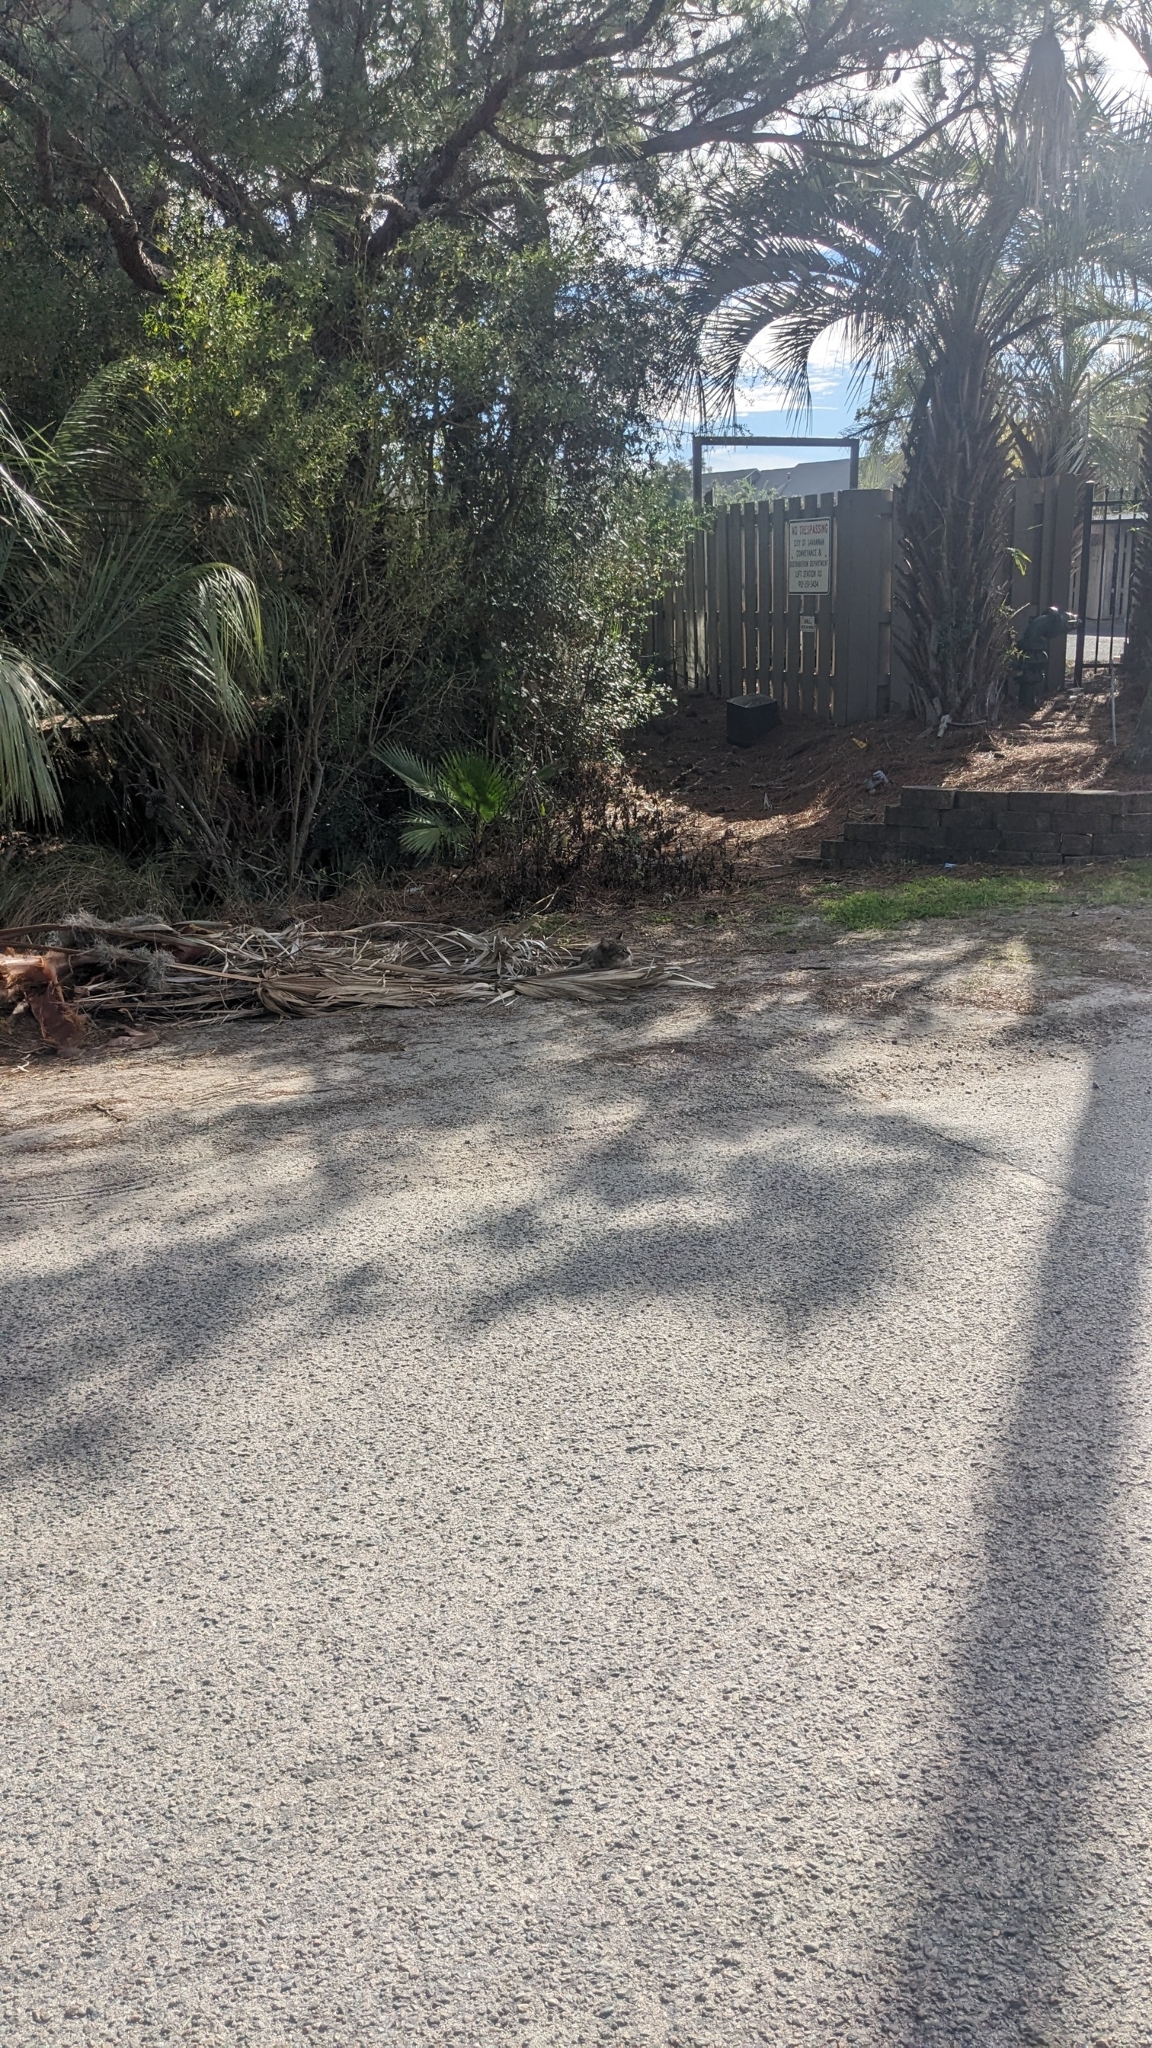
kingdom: Animalia
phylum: Chordata
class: Mammalia
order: Carnivora
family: Felidae
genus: Felis
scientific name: Felis catus
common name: Domestic cat
